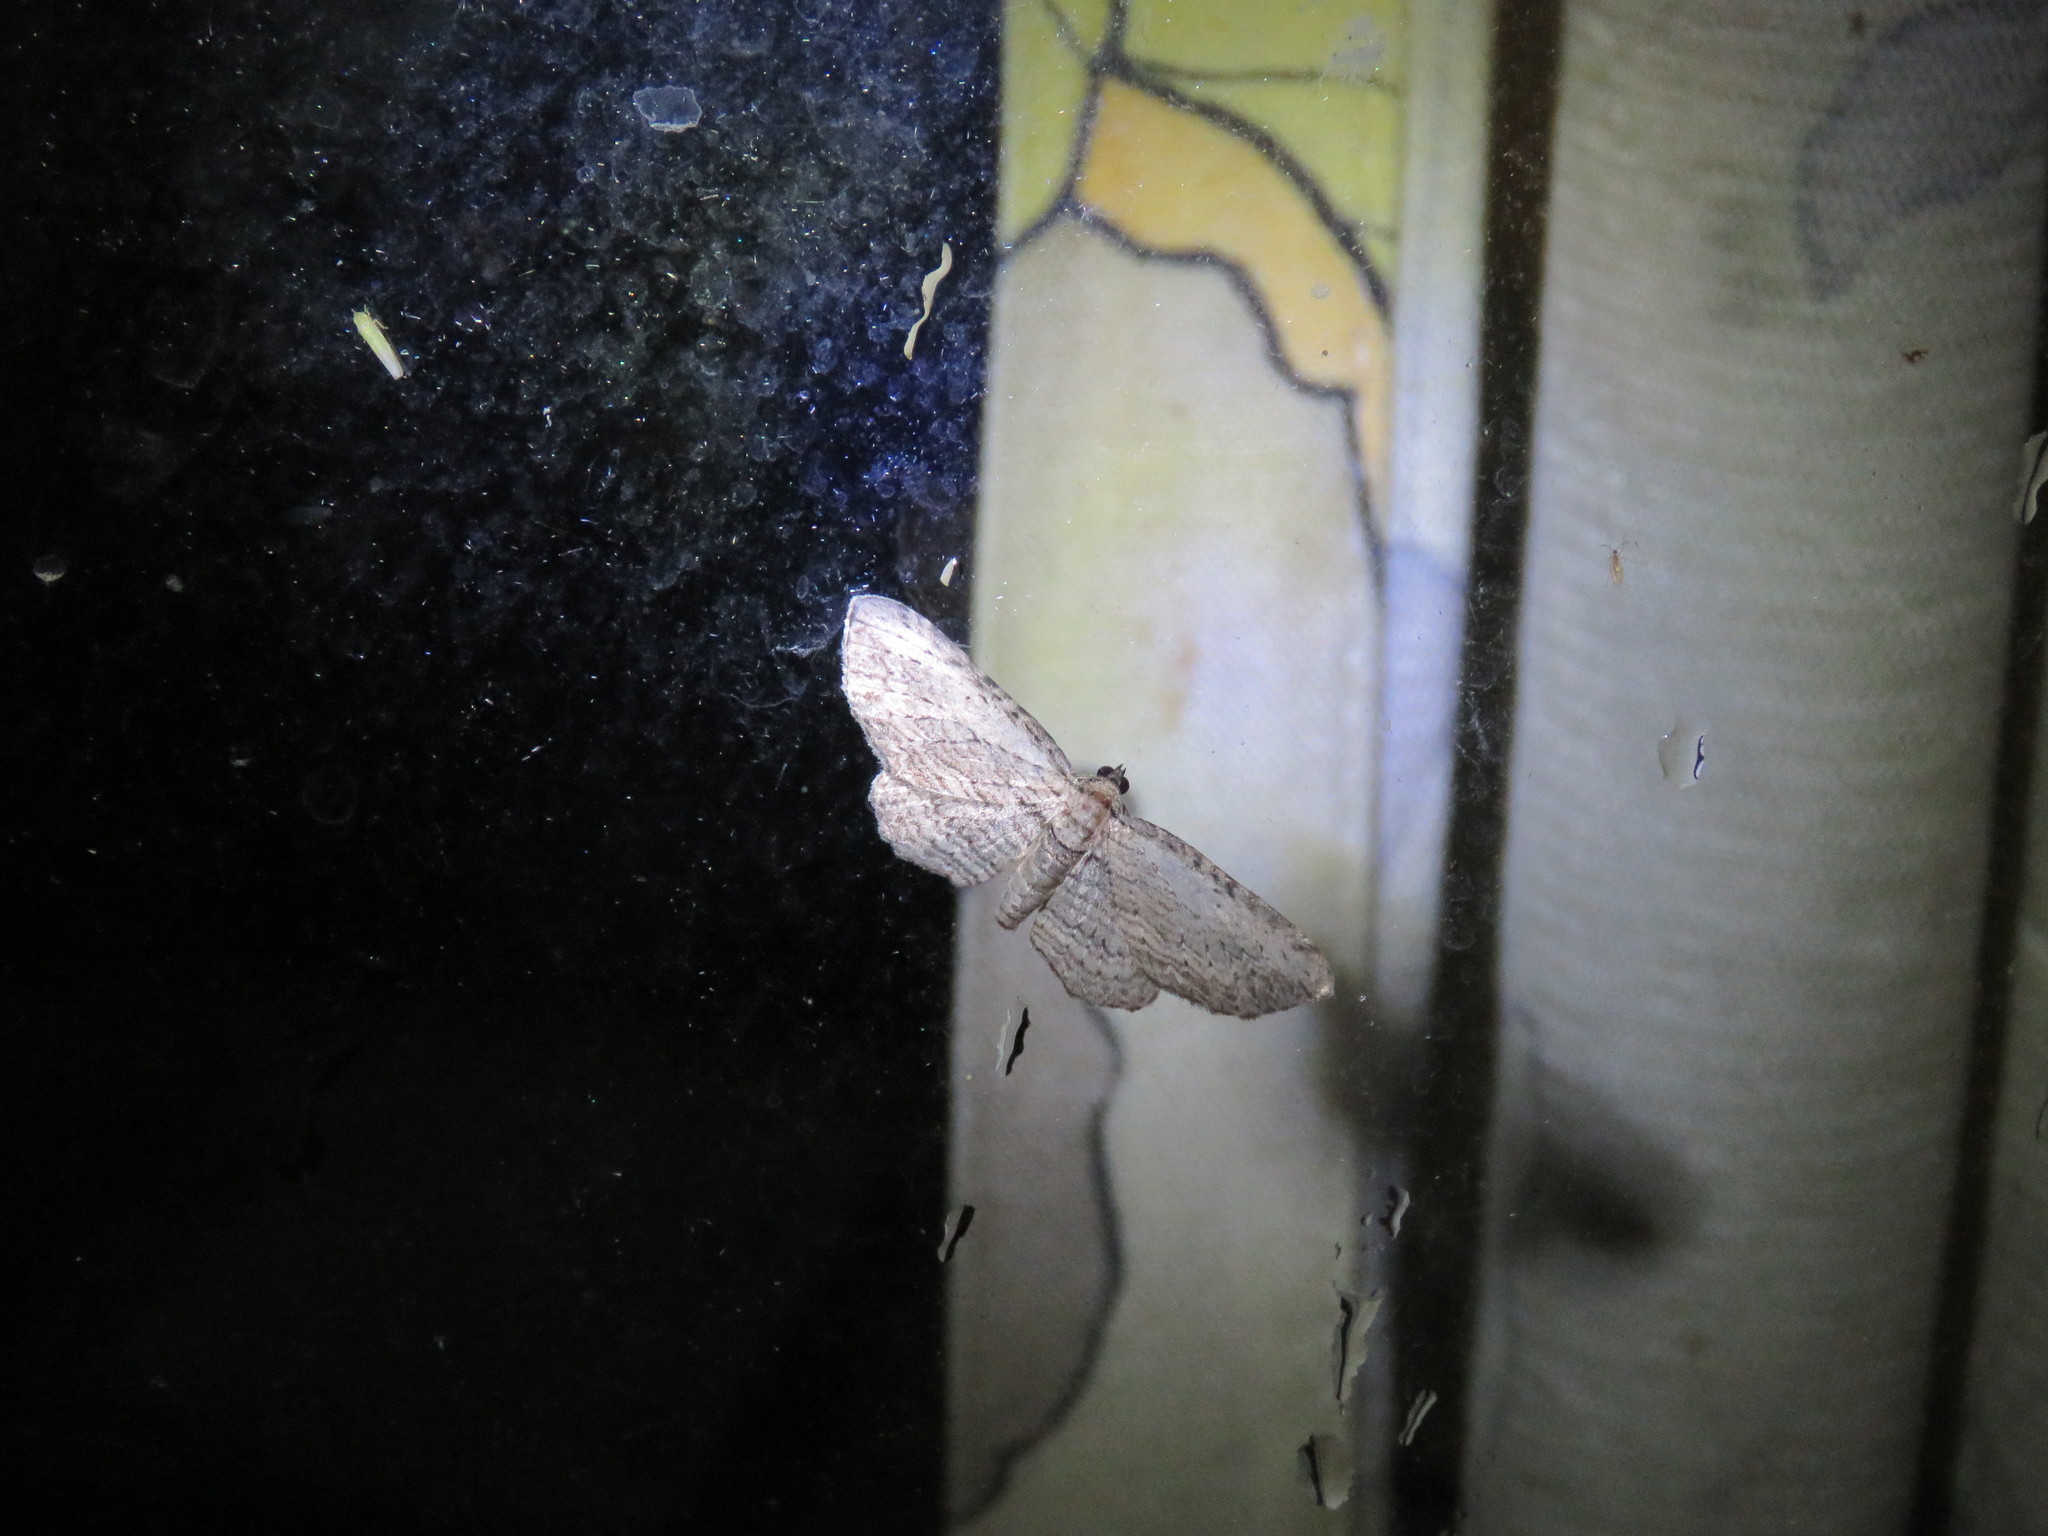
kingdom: Animalia
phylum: Arthropoda
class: Insecta
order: Lepidoptera
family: Geometridae
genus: Horisme
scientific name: Horisme intestinata
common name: Brown bark carpet
